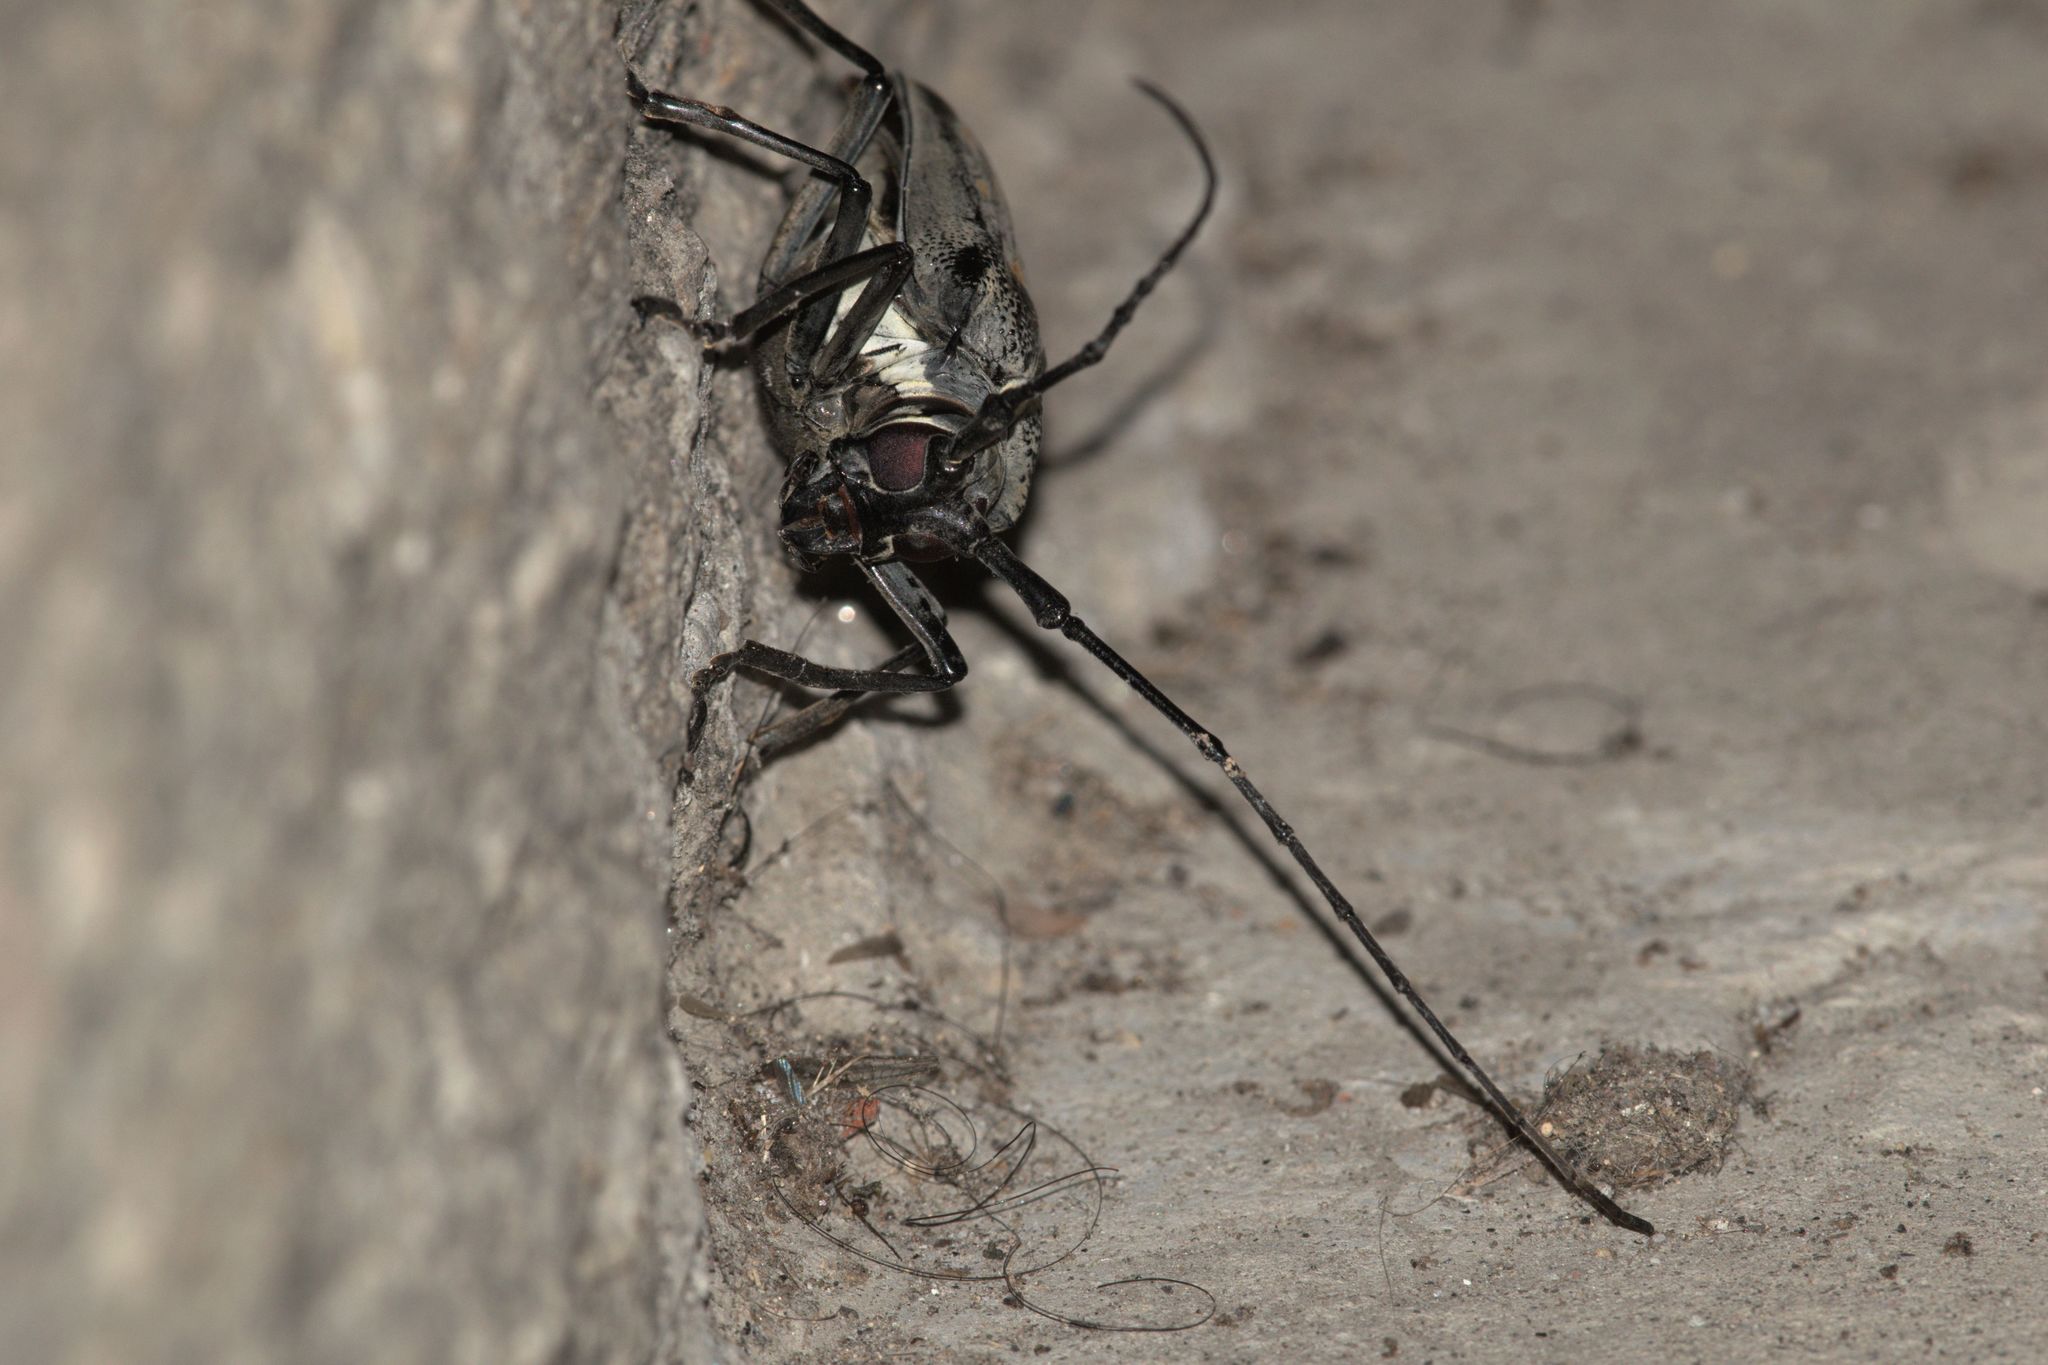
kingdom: Animalia
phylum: Arthropoda
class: Insecta
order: Coleoptera
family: Cerambycidae
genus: Batocera
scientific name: Batocera horsfieldi
